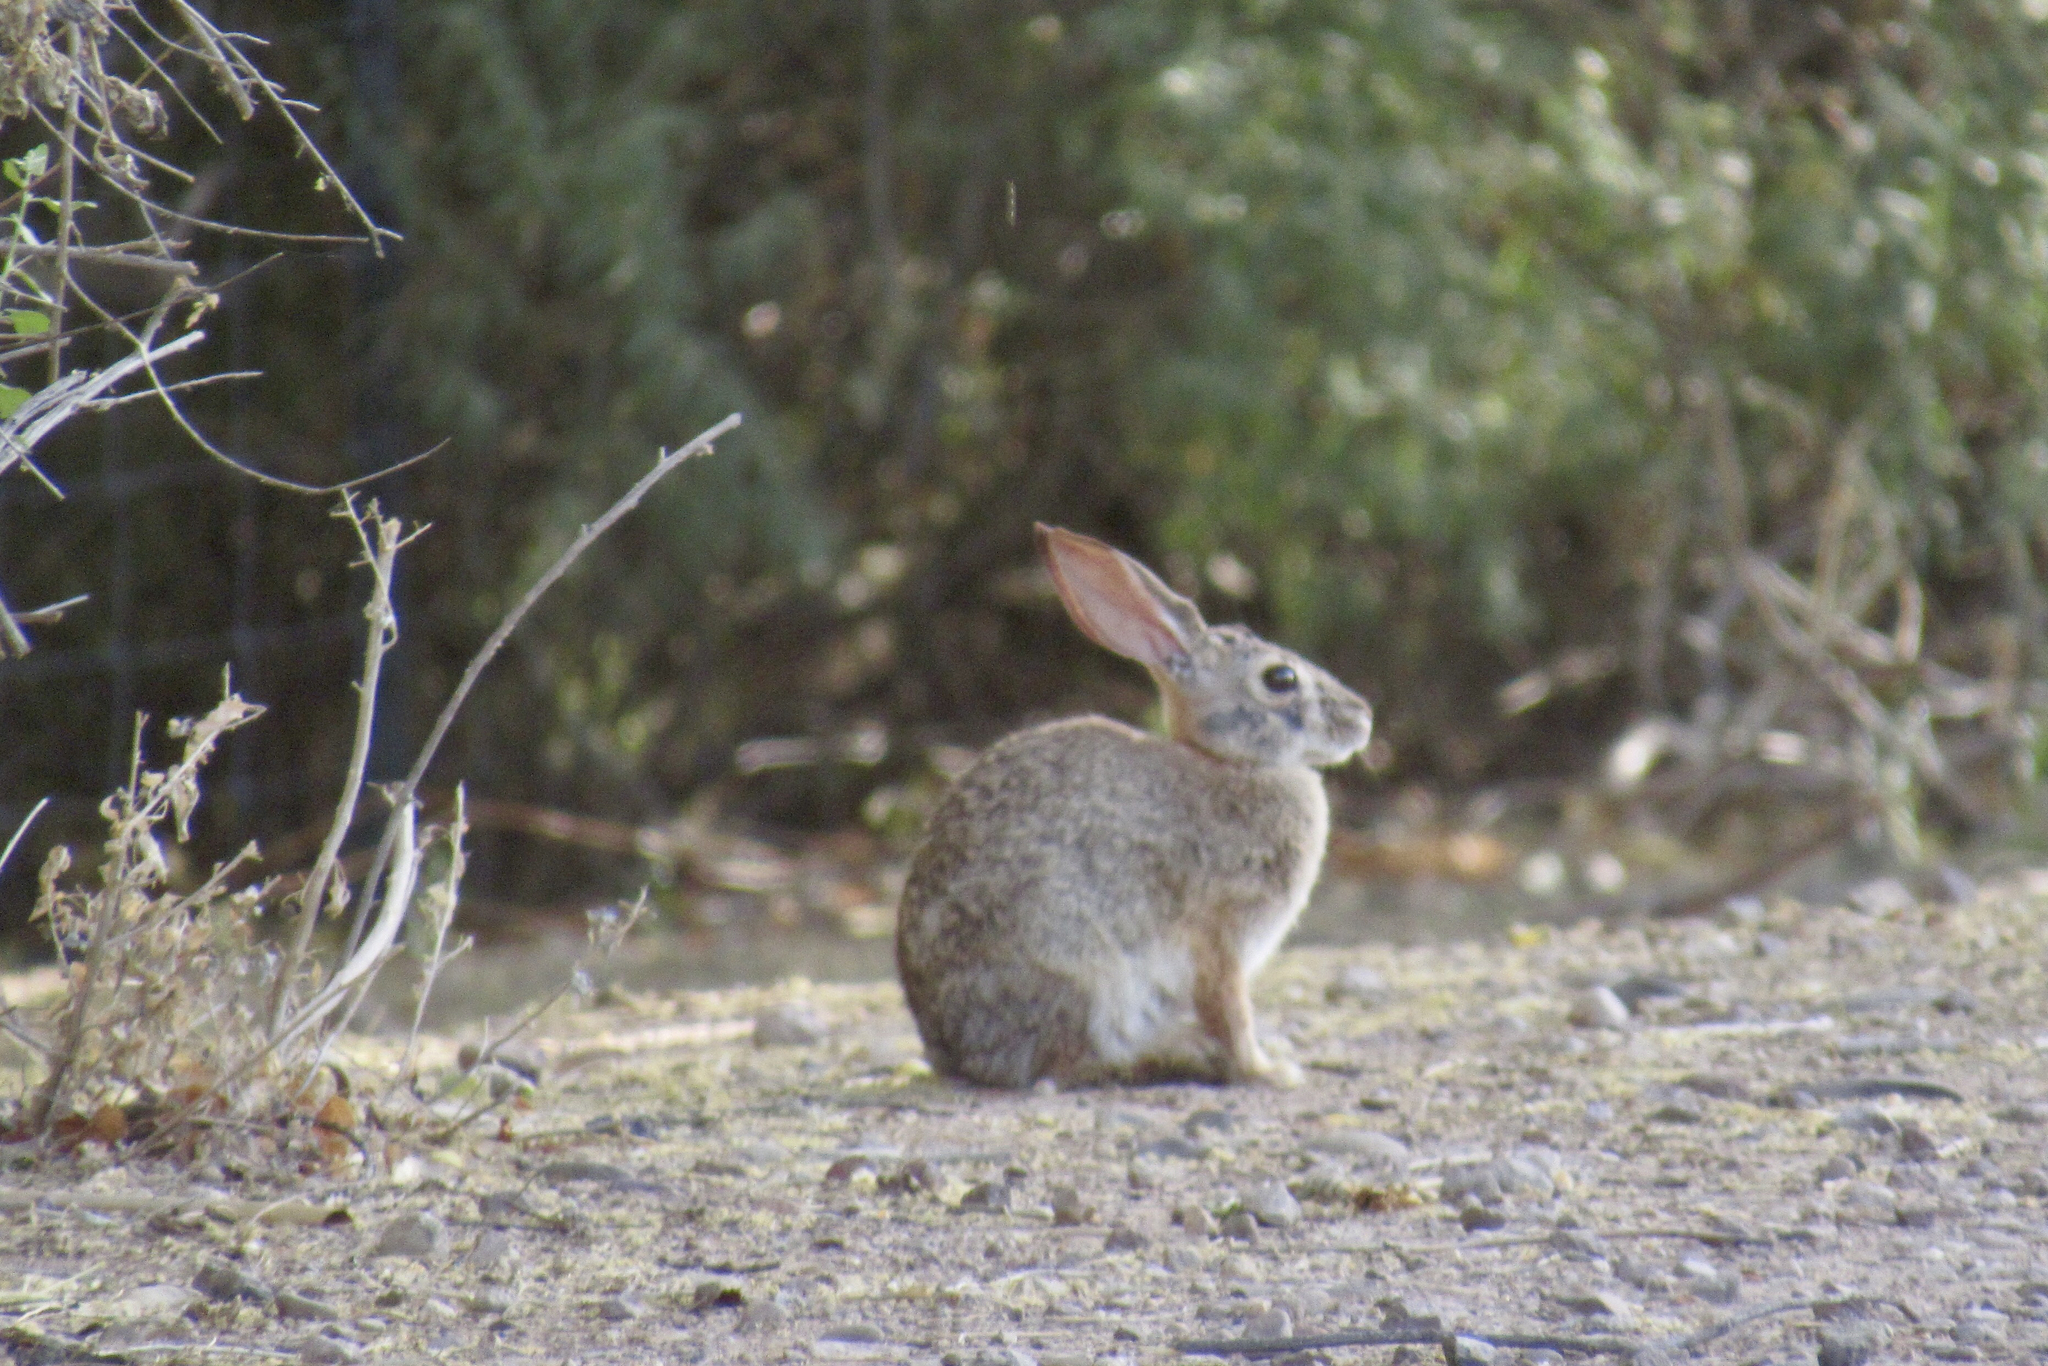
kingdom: Animalia
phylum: Chordata
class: Mammalia
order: Lagomorpha
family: Leporidae
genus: Sylvilagus
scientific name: Sylvilagus audubonii
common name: Desert cottontail
